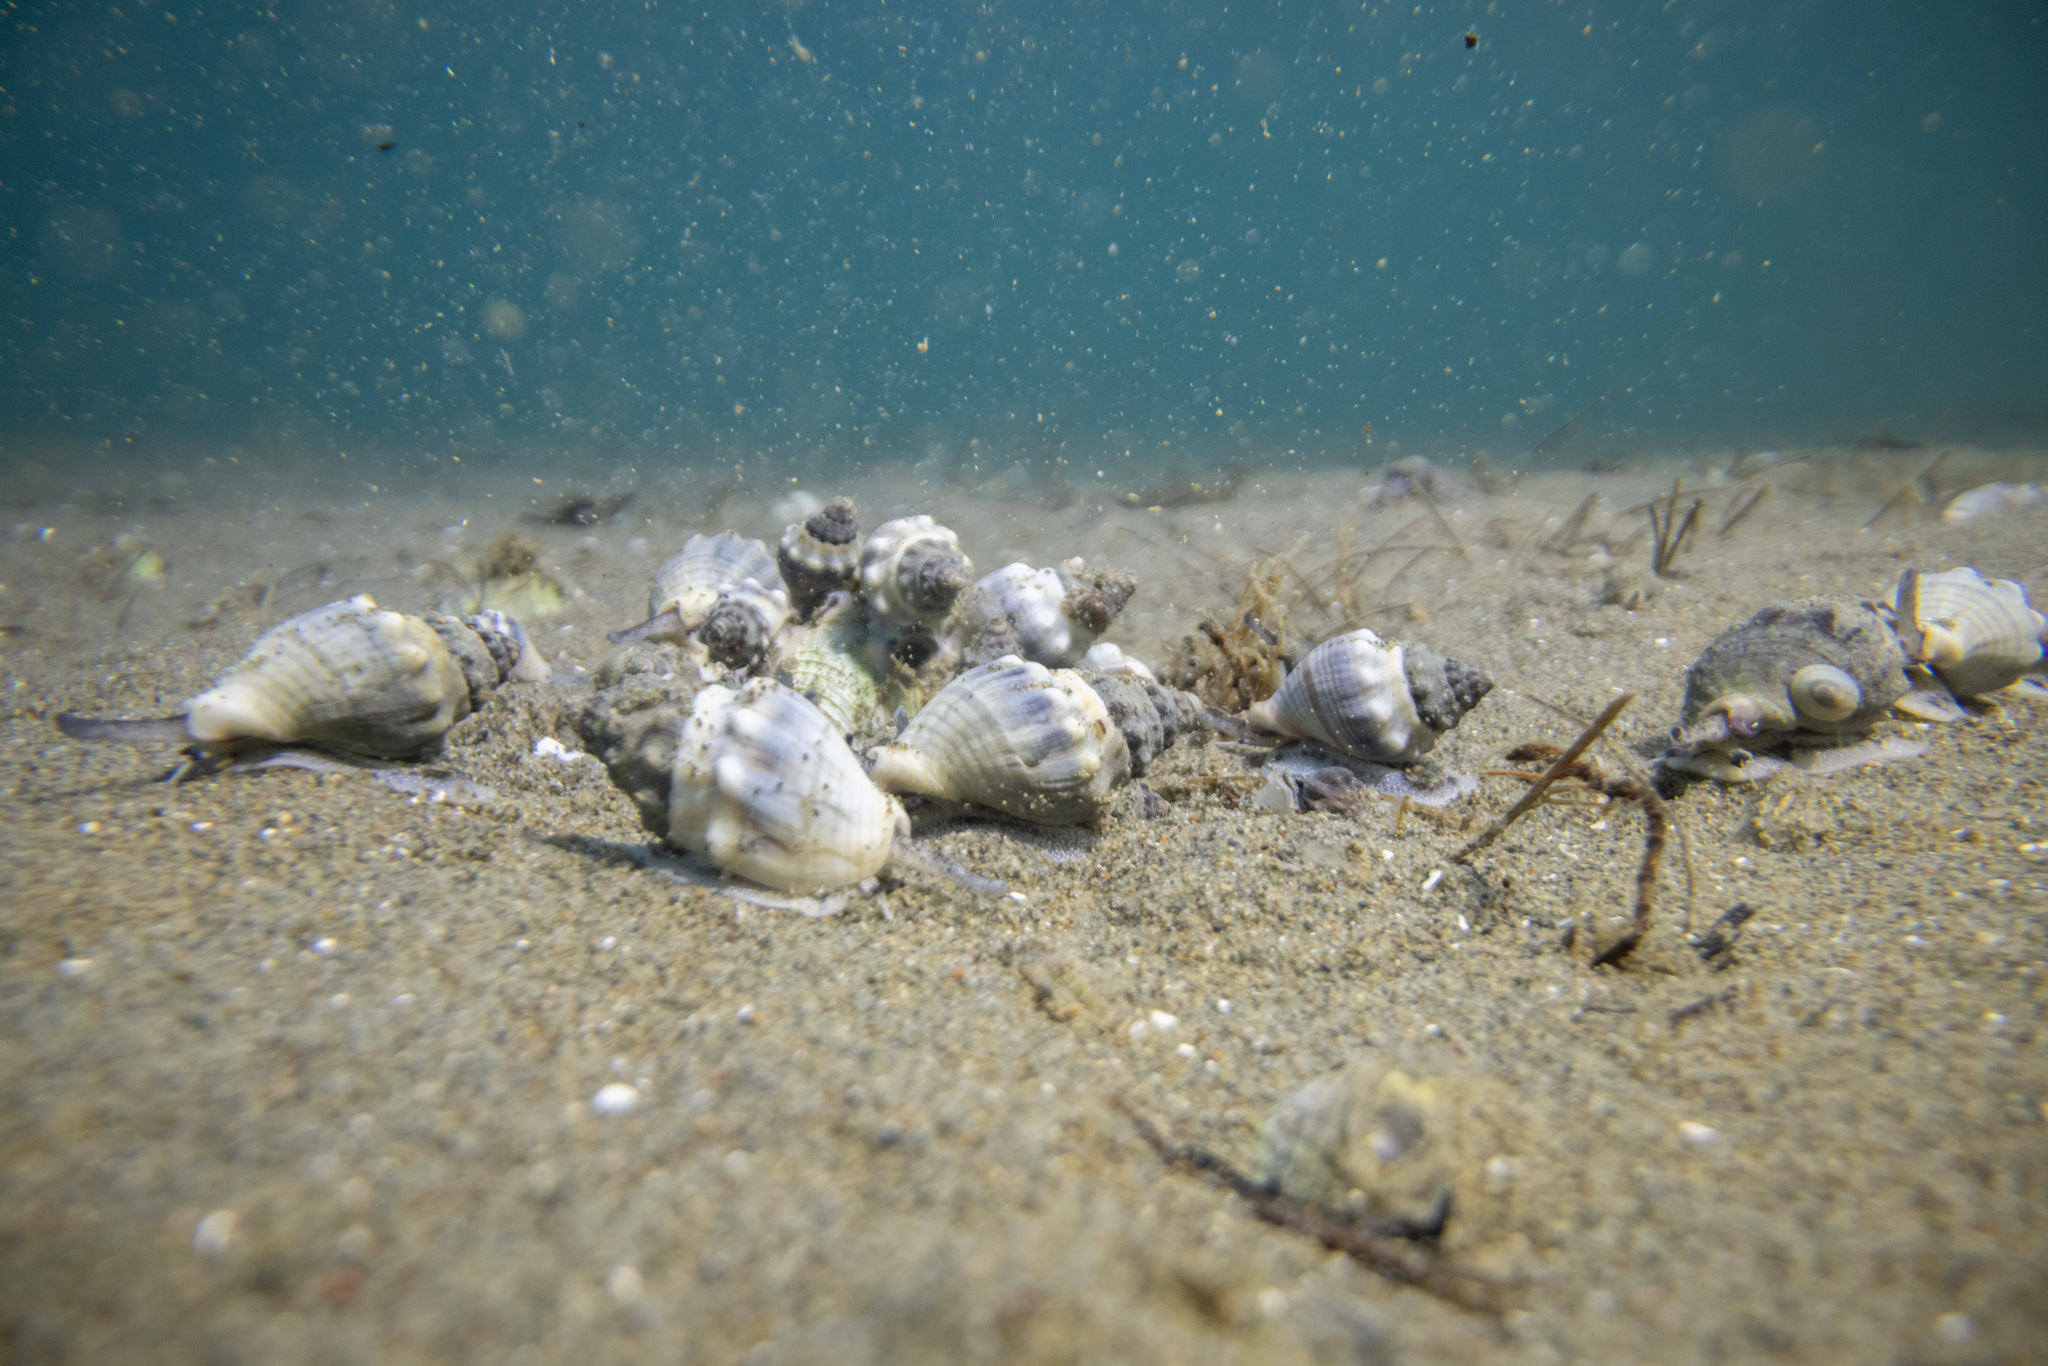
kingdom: Animalia
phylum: Mollusca
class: Gastropoda
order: Neogastropoda
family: Cominellidae
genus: Cominella
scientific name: Cominella glandiformis
